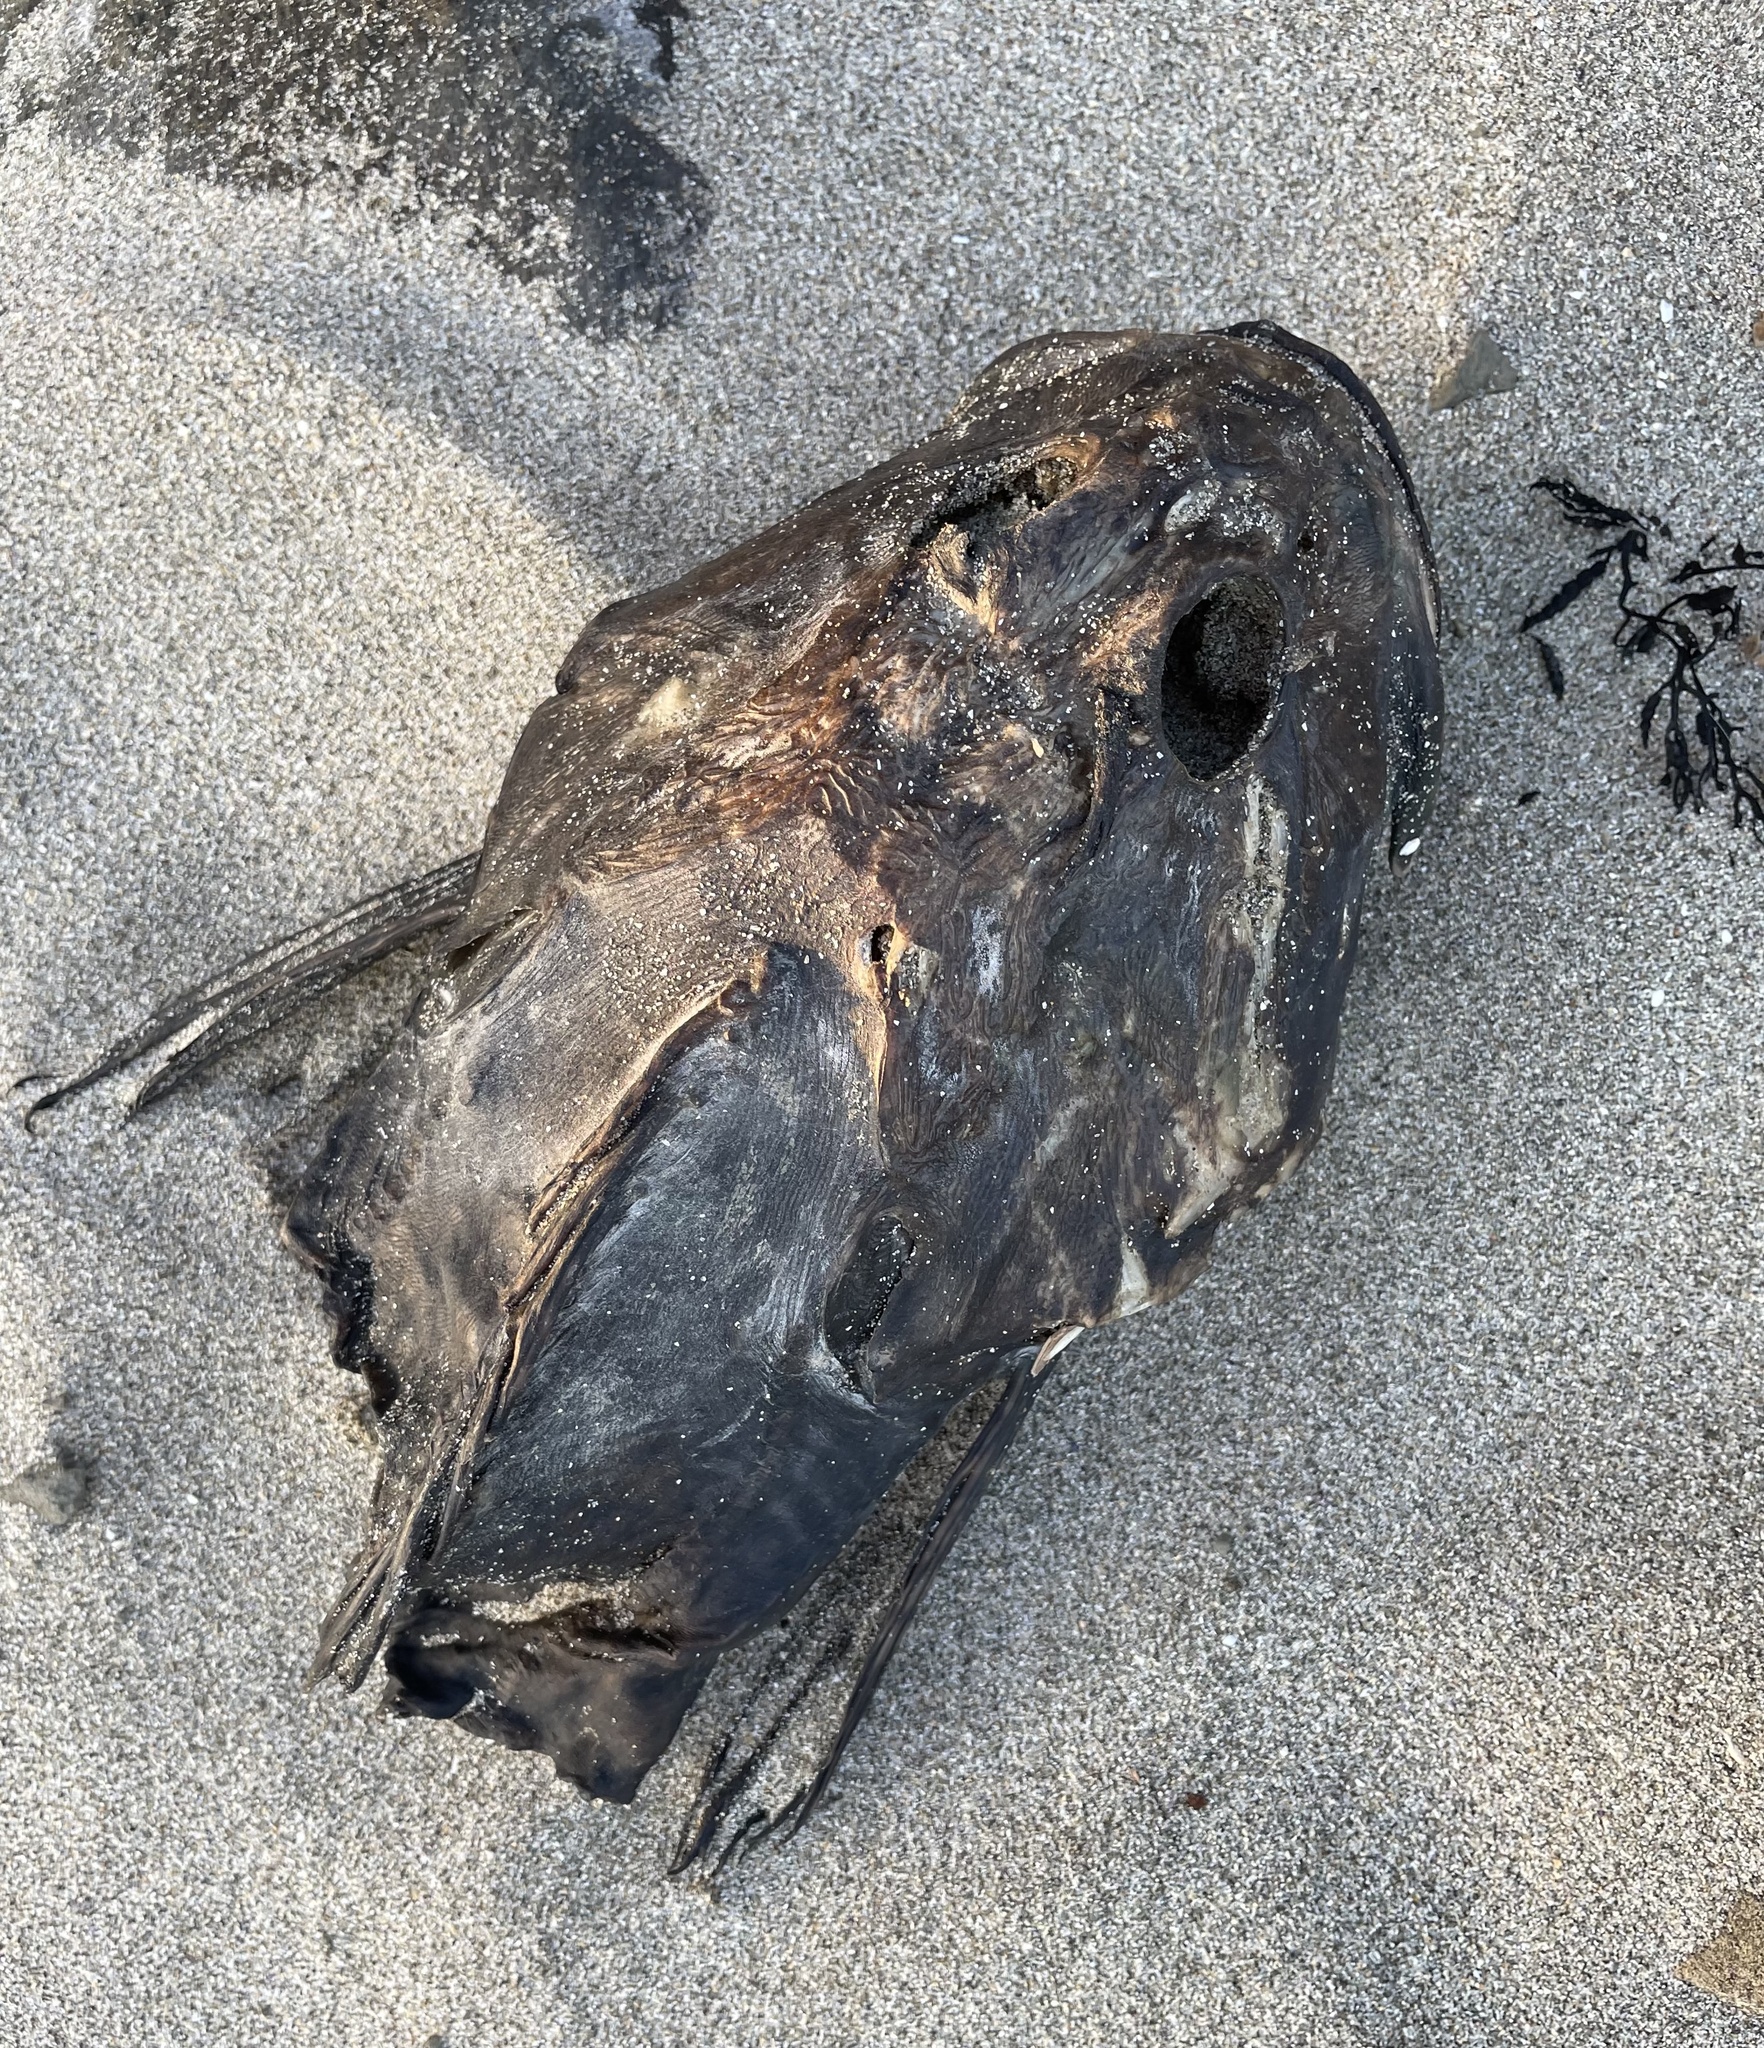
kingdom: Animalia
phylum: Chordata
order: Scorpaeniformes
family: Cottidae
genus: Scorpaenichthys
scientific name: Scorpaenichthys marmoratus
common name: Cabezon
